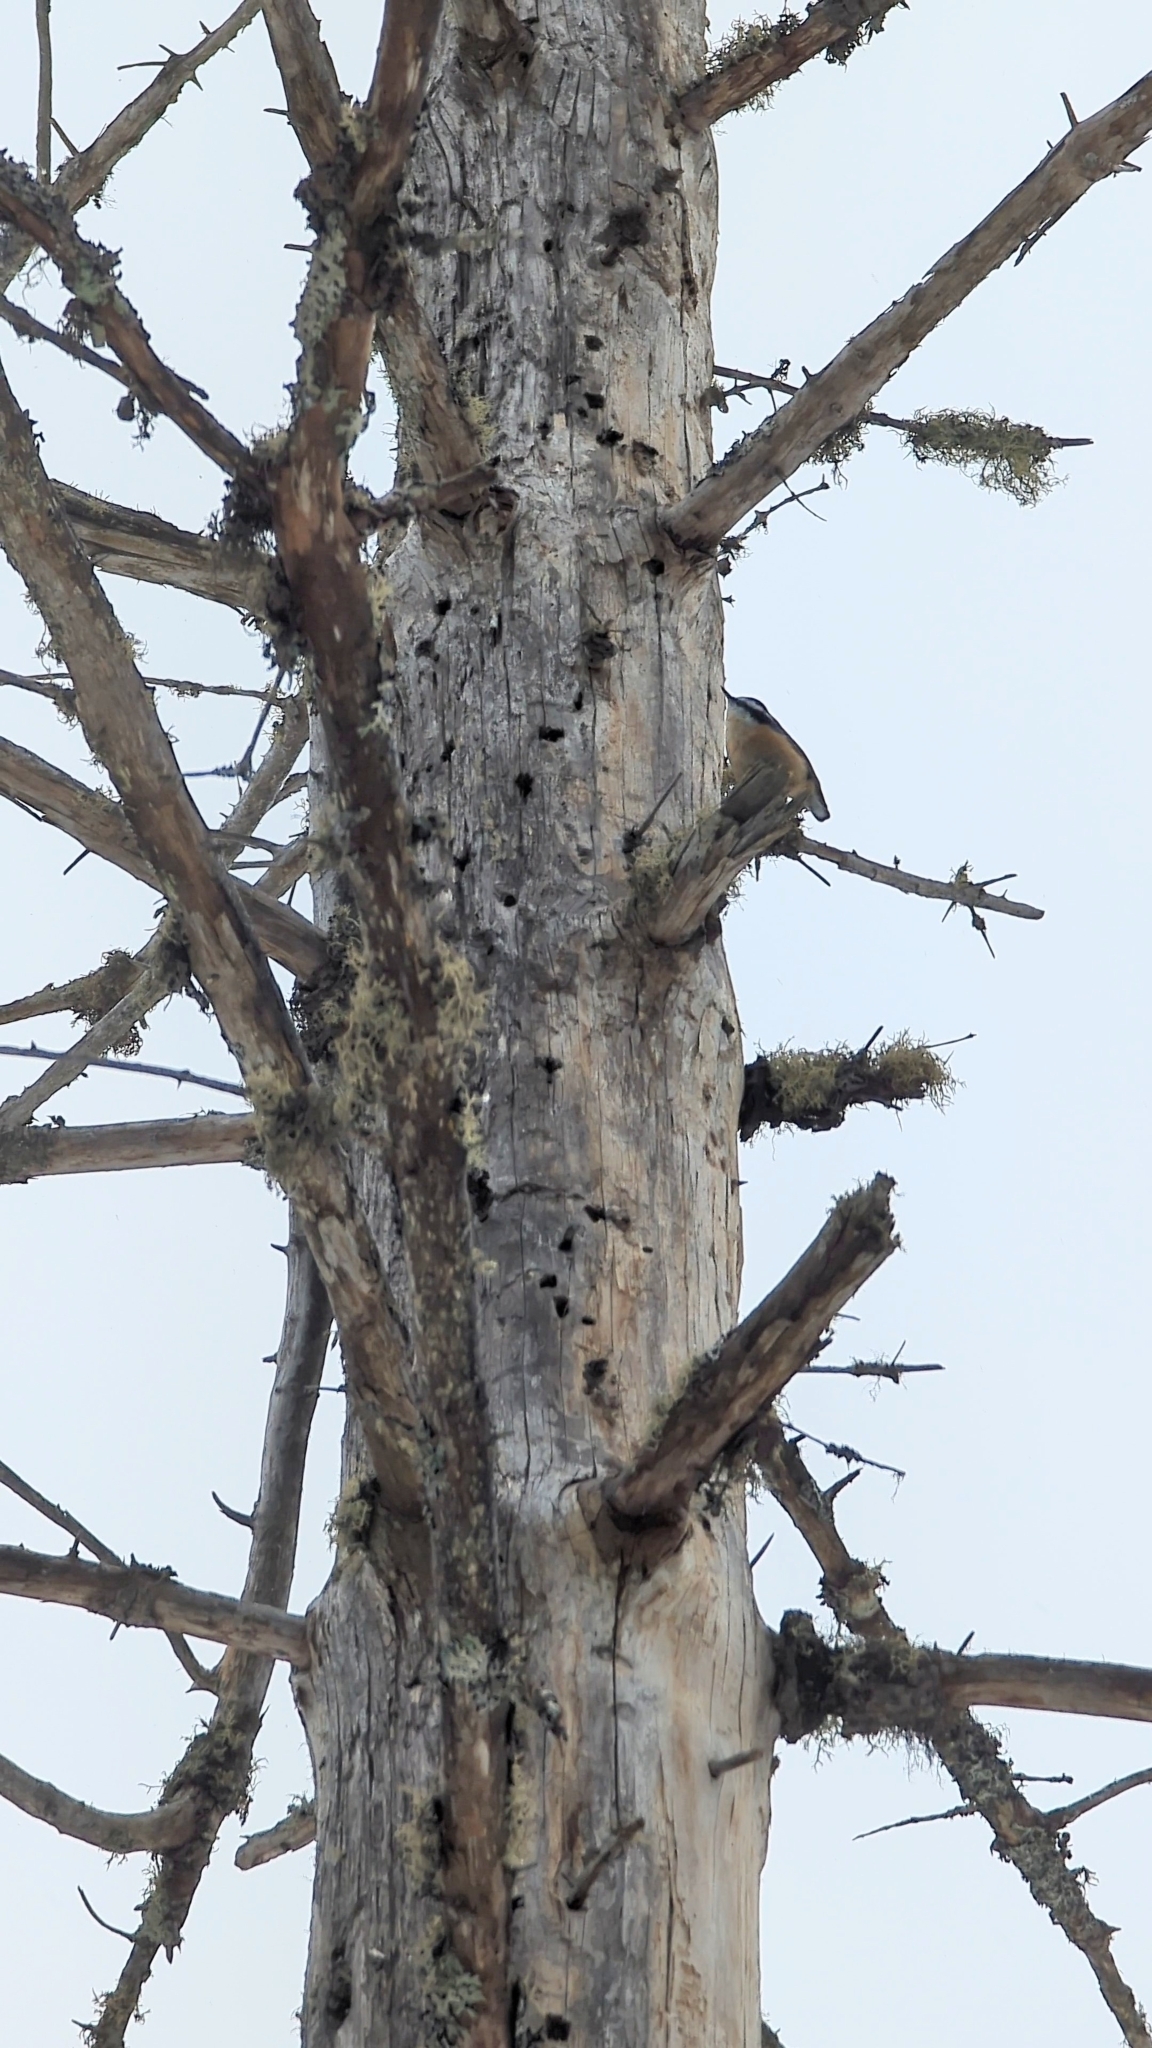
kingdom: Animalia
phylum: Chordata
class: Aves
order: Passeriformes
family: Sittidae
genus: Sitta
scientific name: Sitta canadensis
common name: Red-breasted nuthatch
